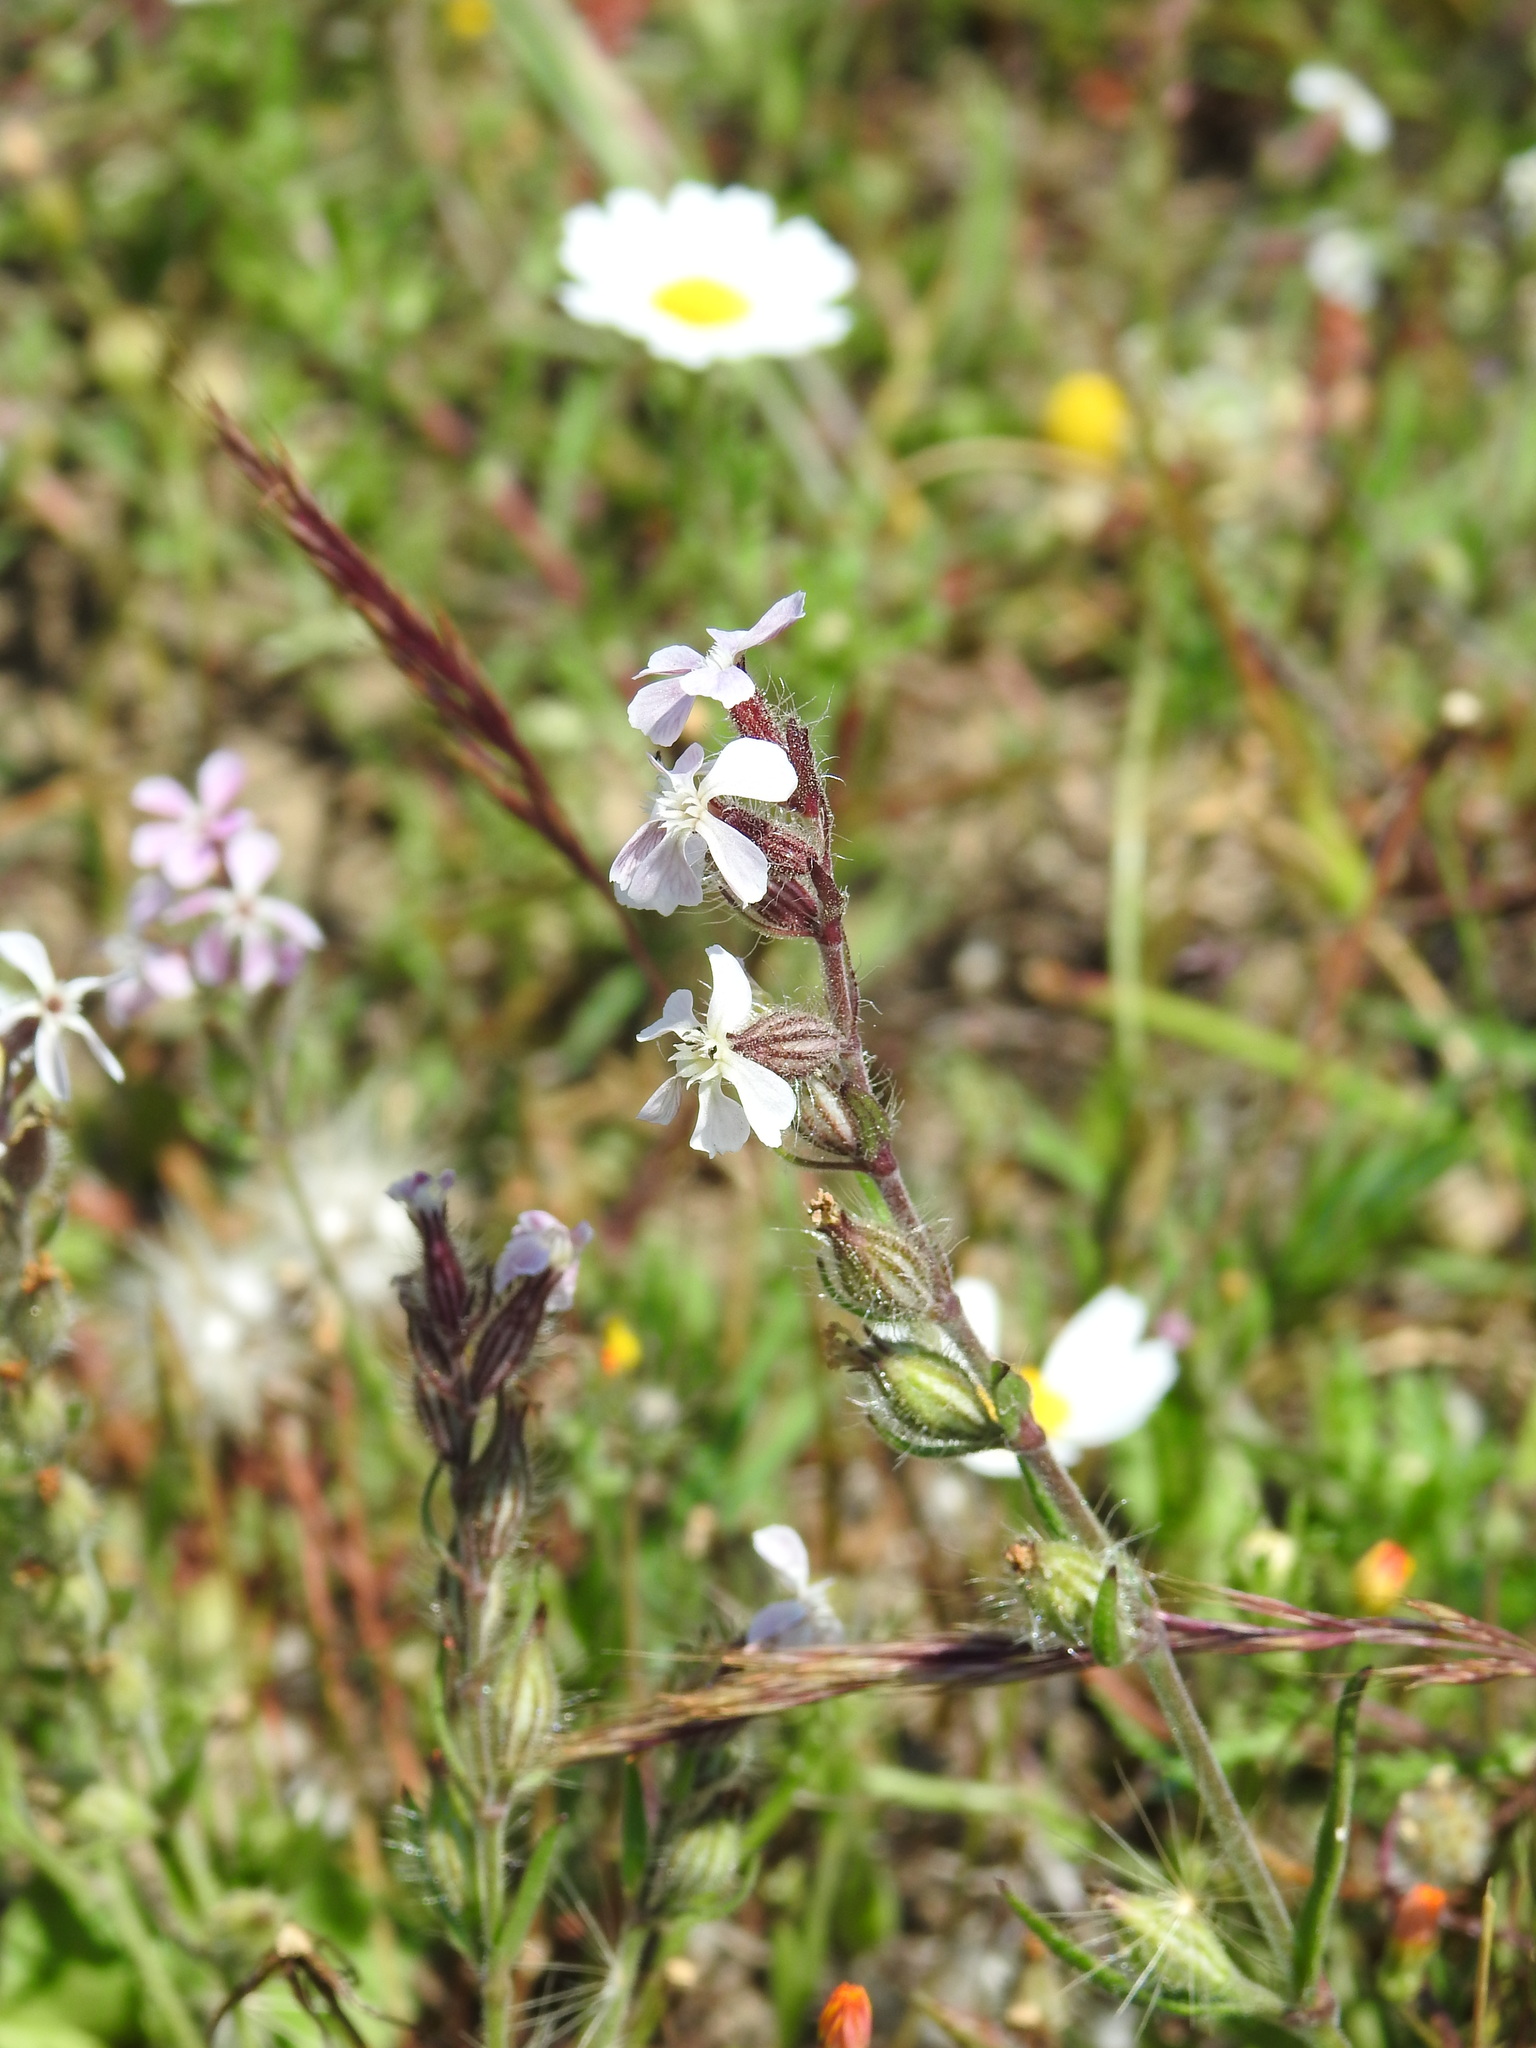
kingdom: Plantae
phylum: Tracheophyta
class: Magnoliopsida
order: Caryophyllales
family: Caryophyllaceae
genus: Silene
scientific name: Silene gallica
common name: Small-flowered catchfly
